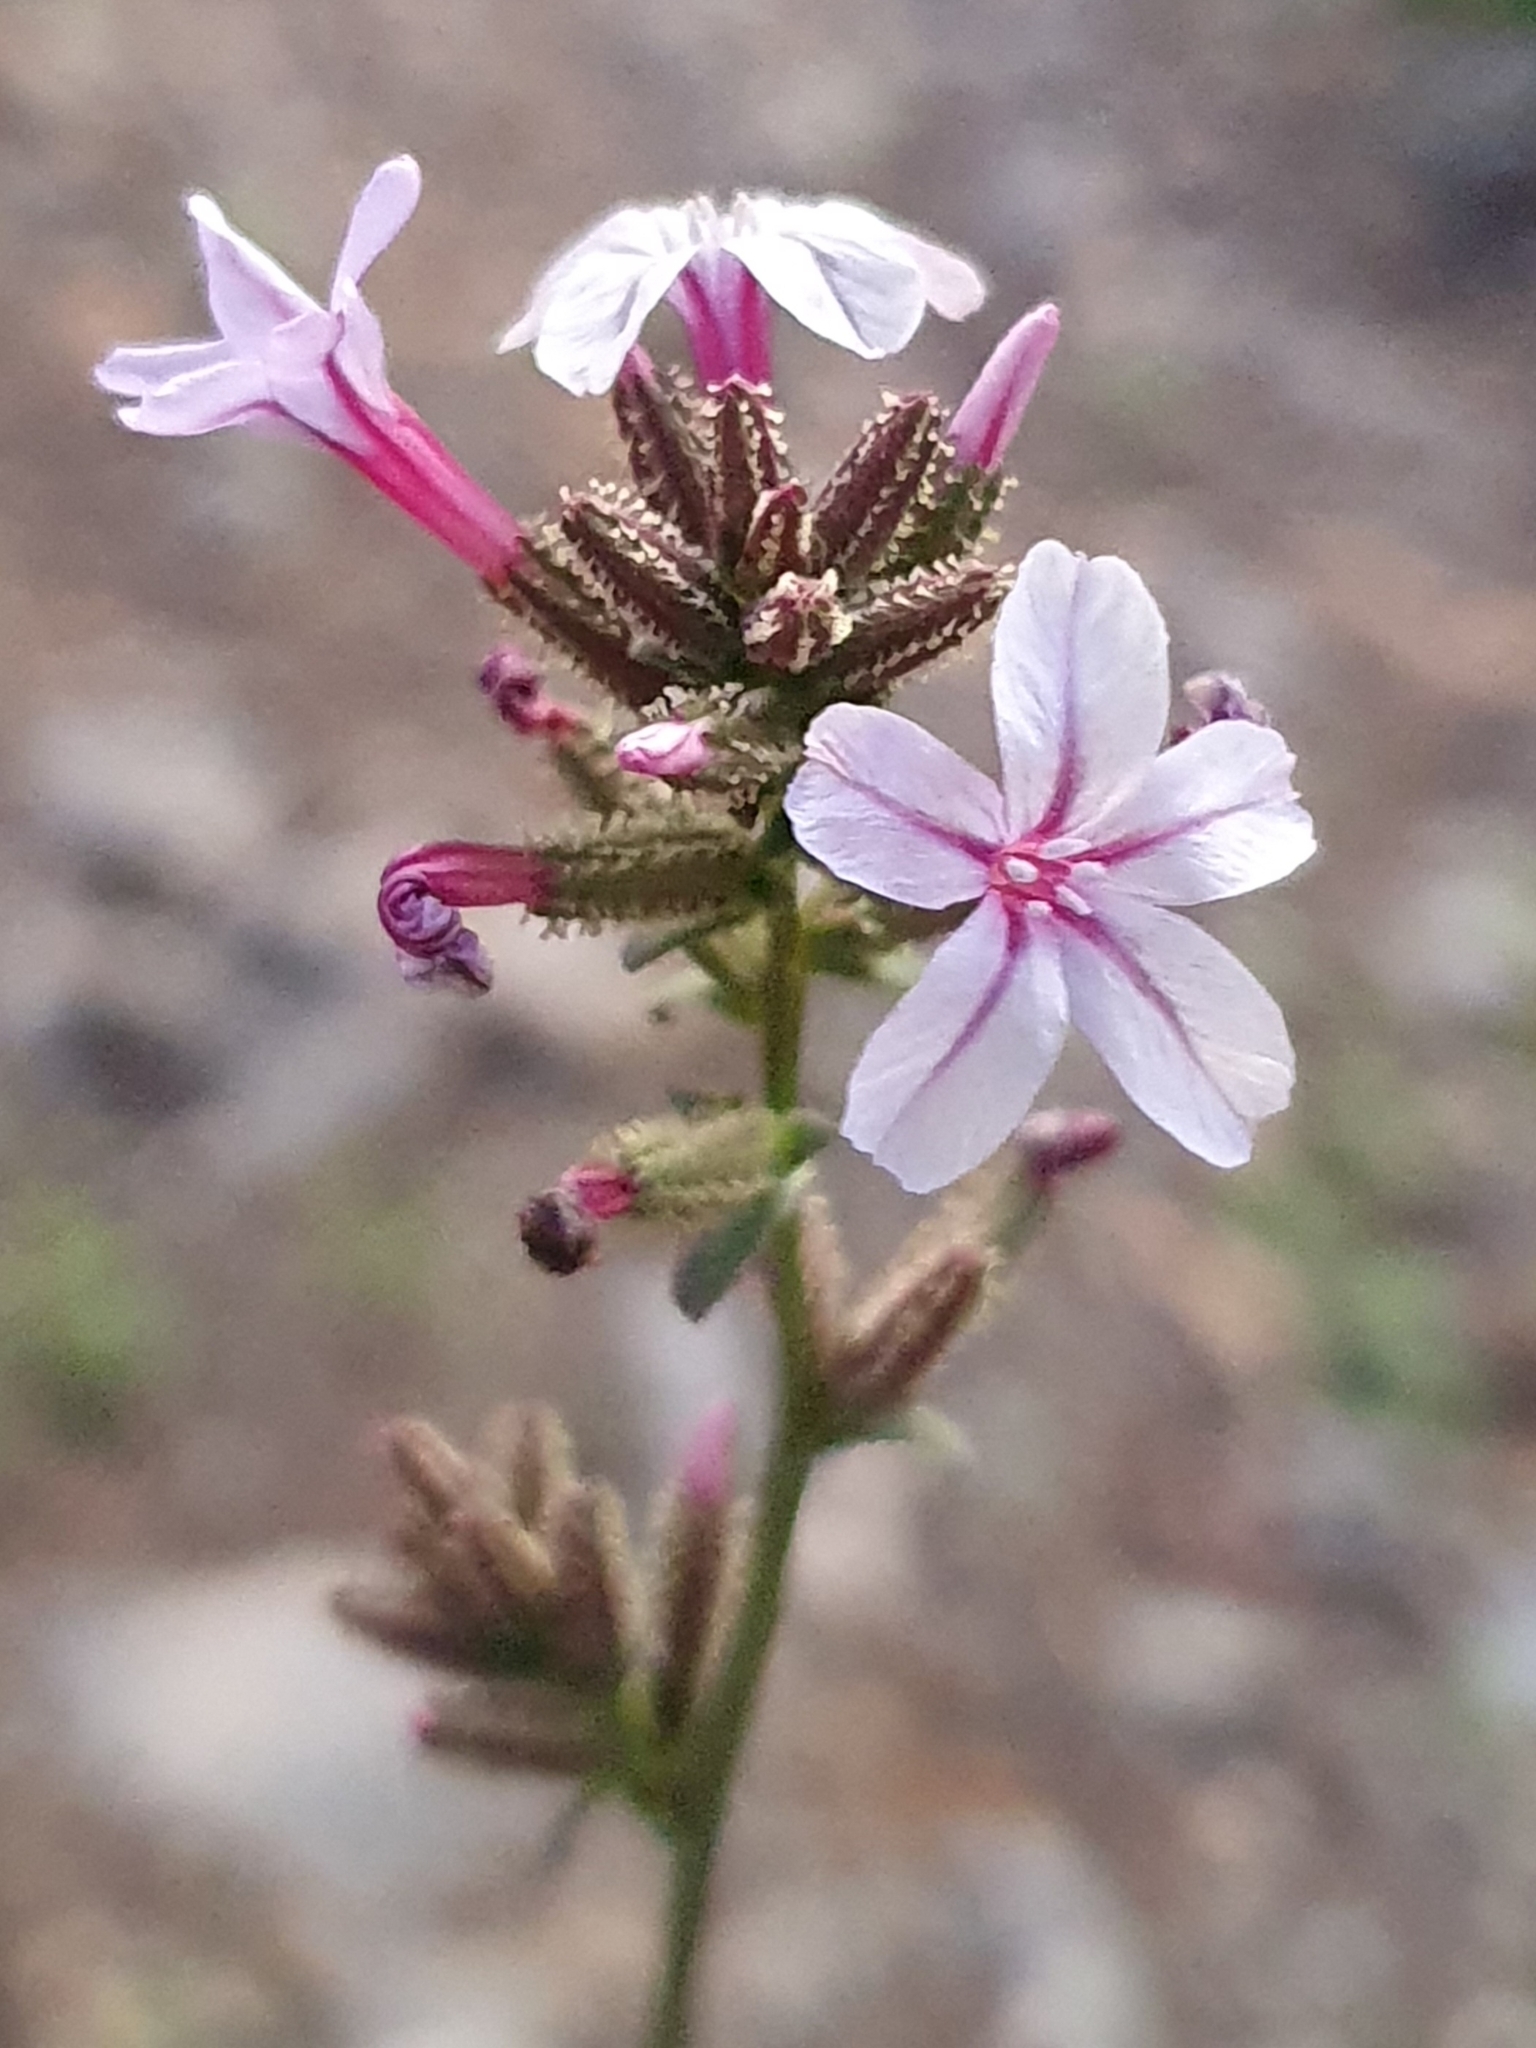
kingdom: Plantae
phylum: Tracheophyta
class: Magnoliopsida
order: Caryophyllales
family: Plumbaginaceae
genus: Plumbago
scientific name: Plumbago europaea
